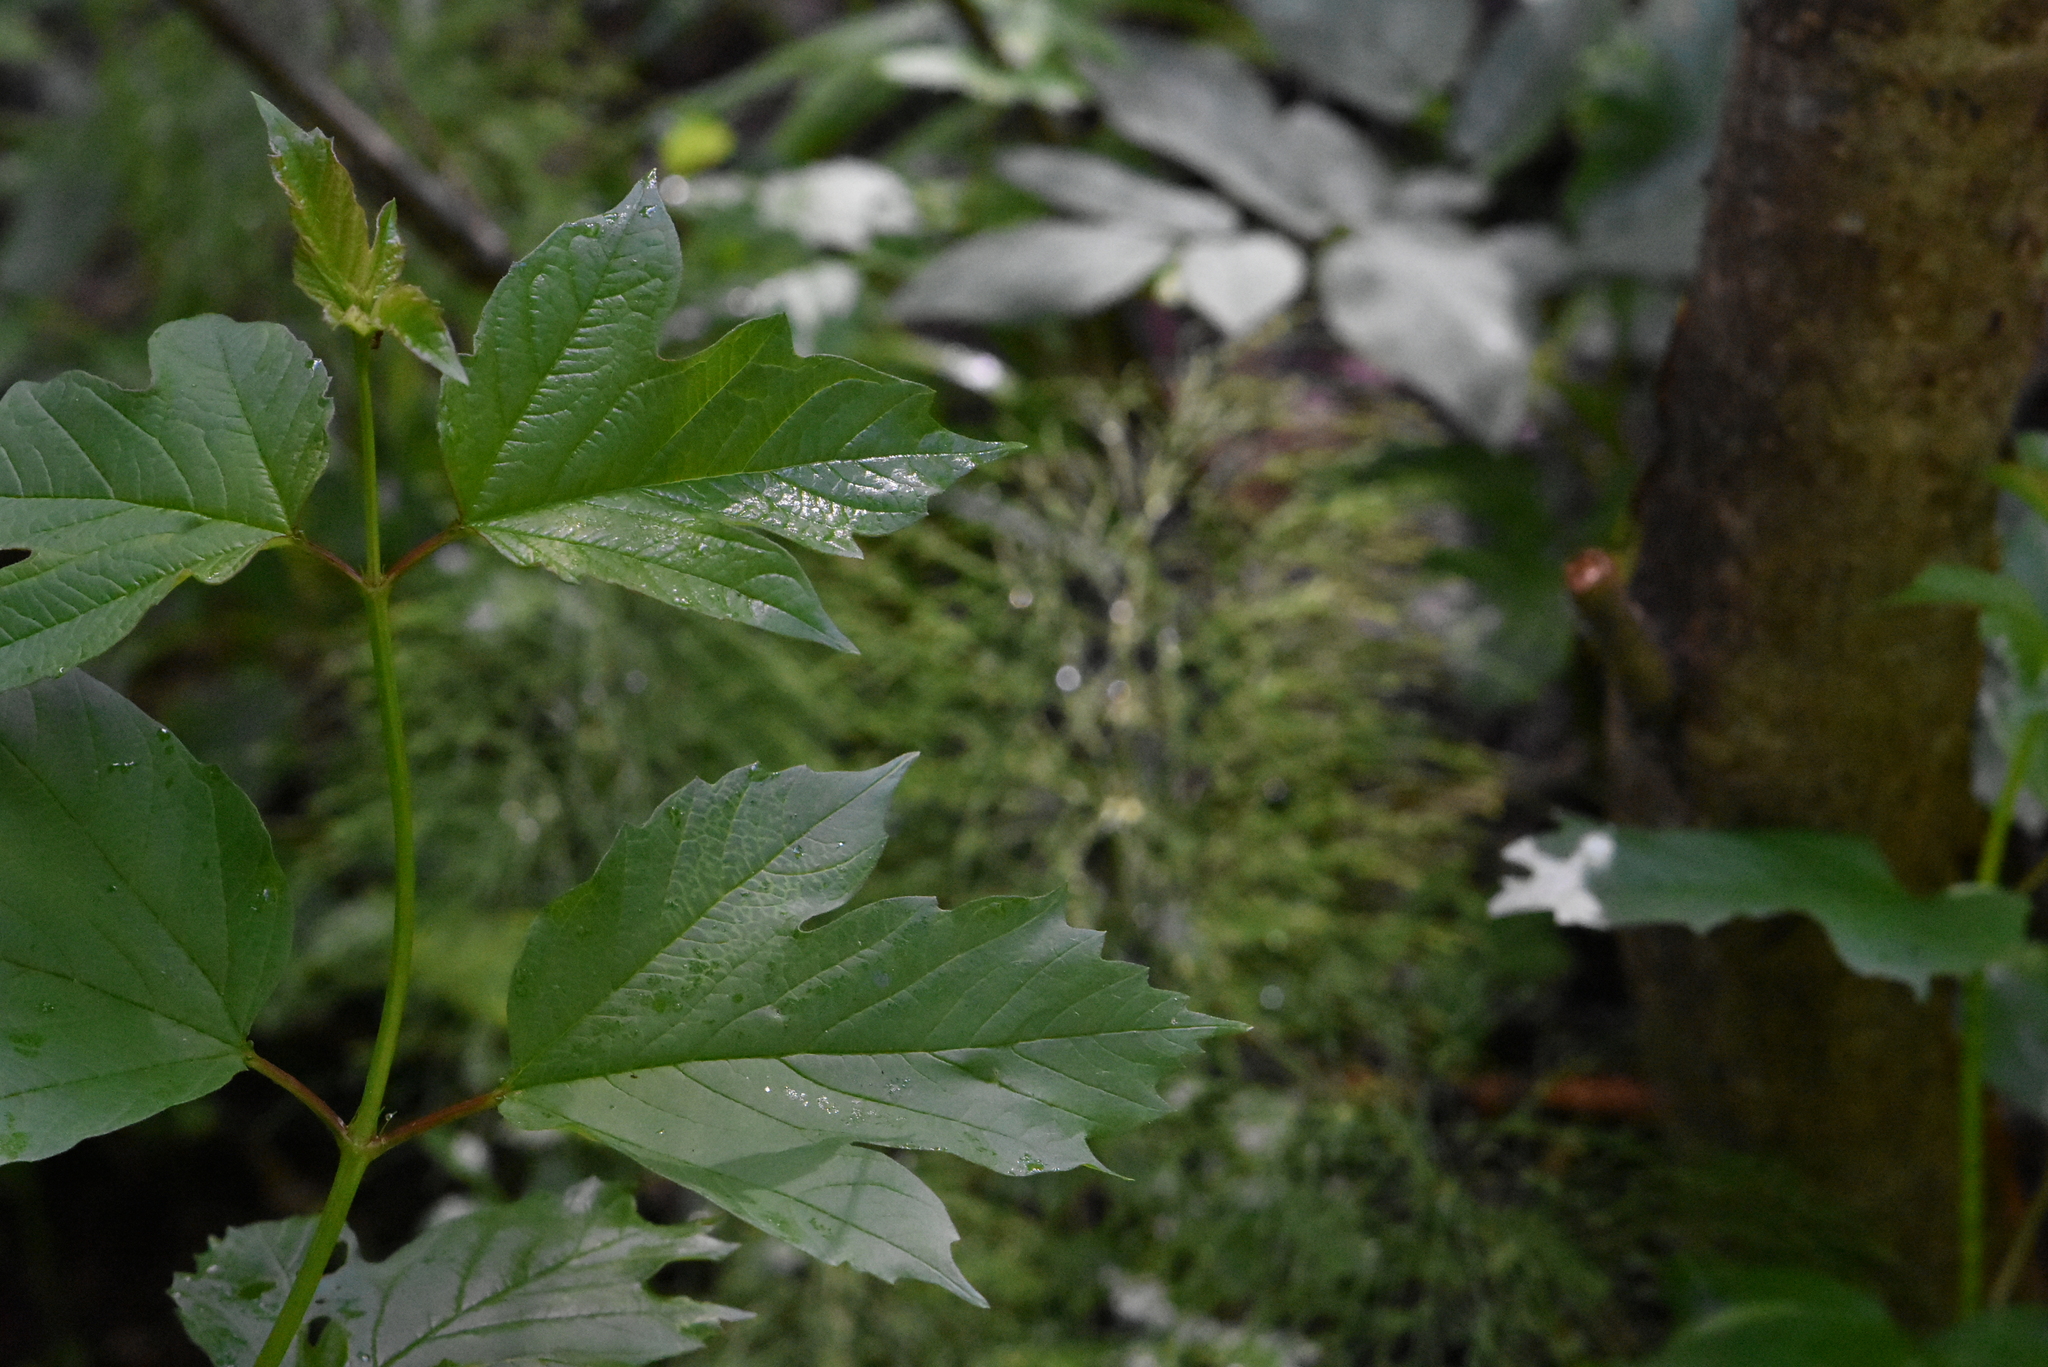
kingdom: Plantae
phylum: Tracheophyta
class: Magnoliopsida
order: Dipsacales
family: Viburnaceae
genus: Viburnum
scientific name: Viburnum opulus
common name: Guelder-rose
